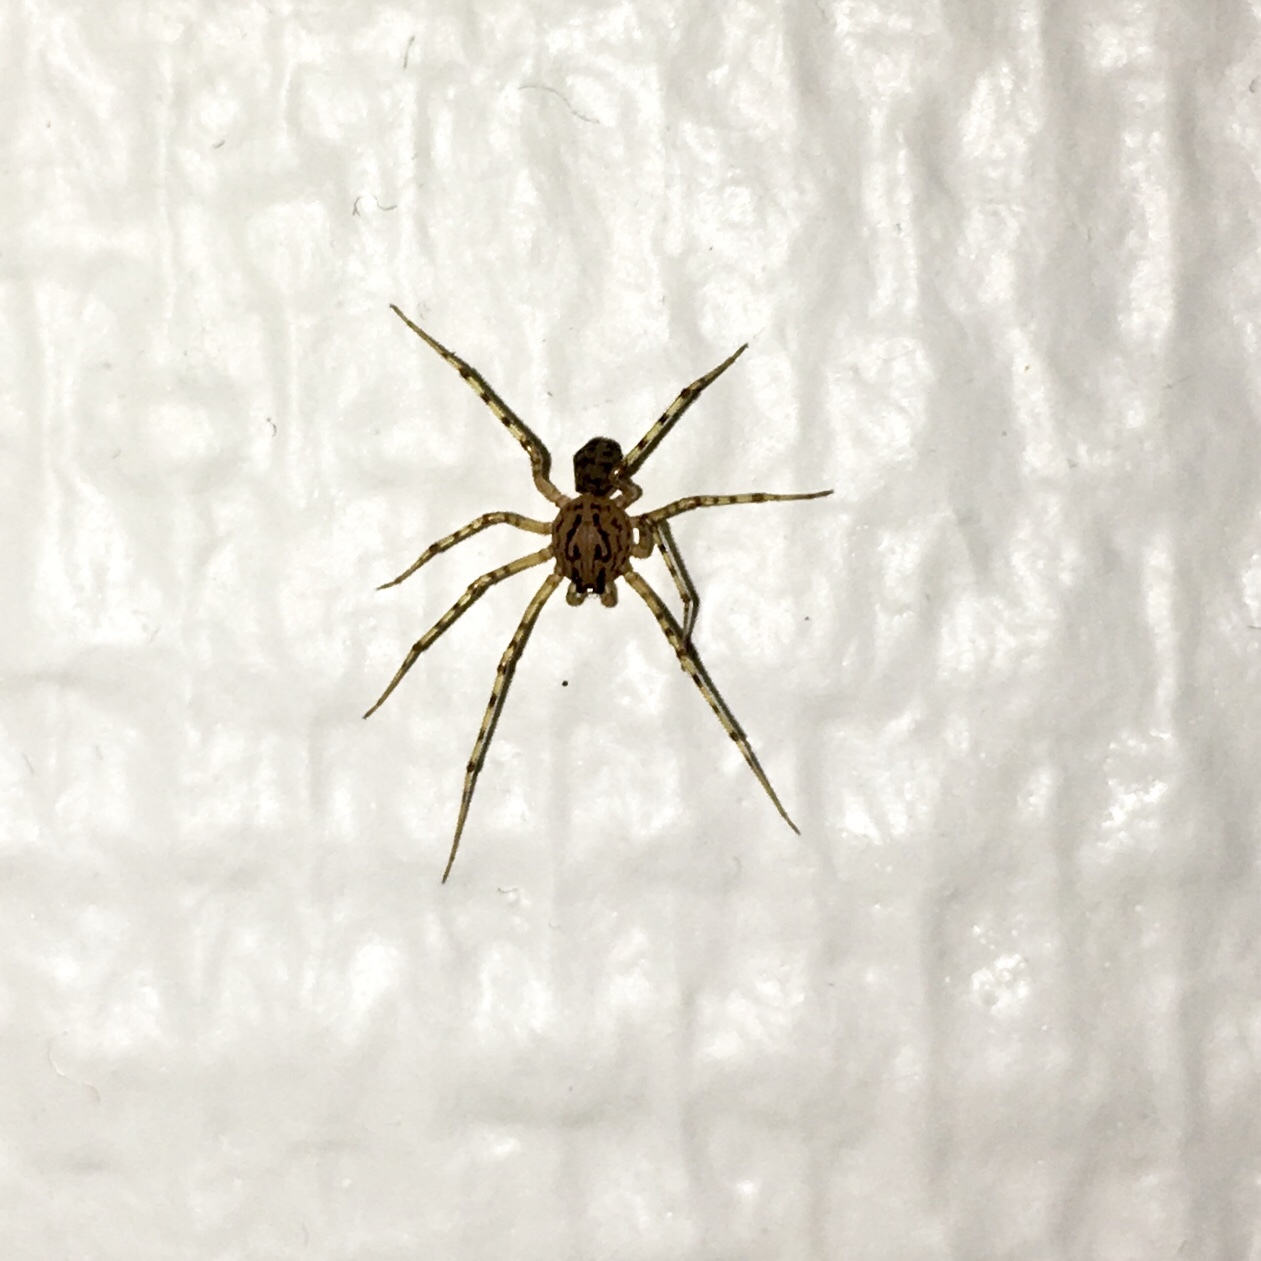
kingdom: Animalia
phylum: Arthropoda
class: Arachnida
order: Araneae
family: Scytodidae
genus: Scytodes
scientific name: Scytodes thoracica
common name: Spitting spider
